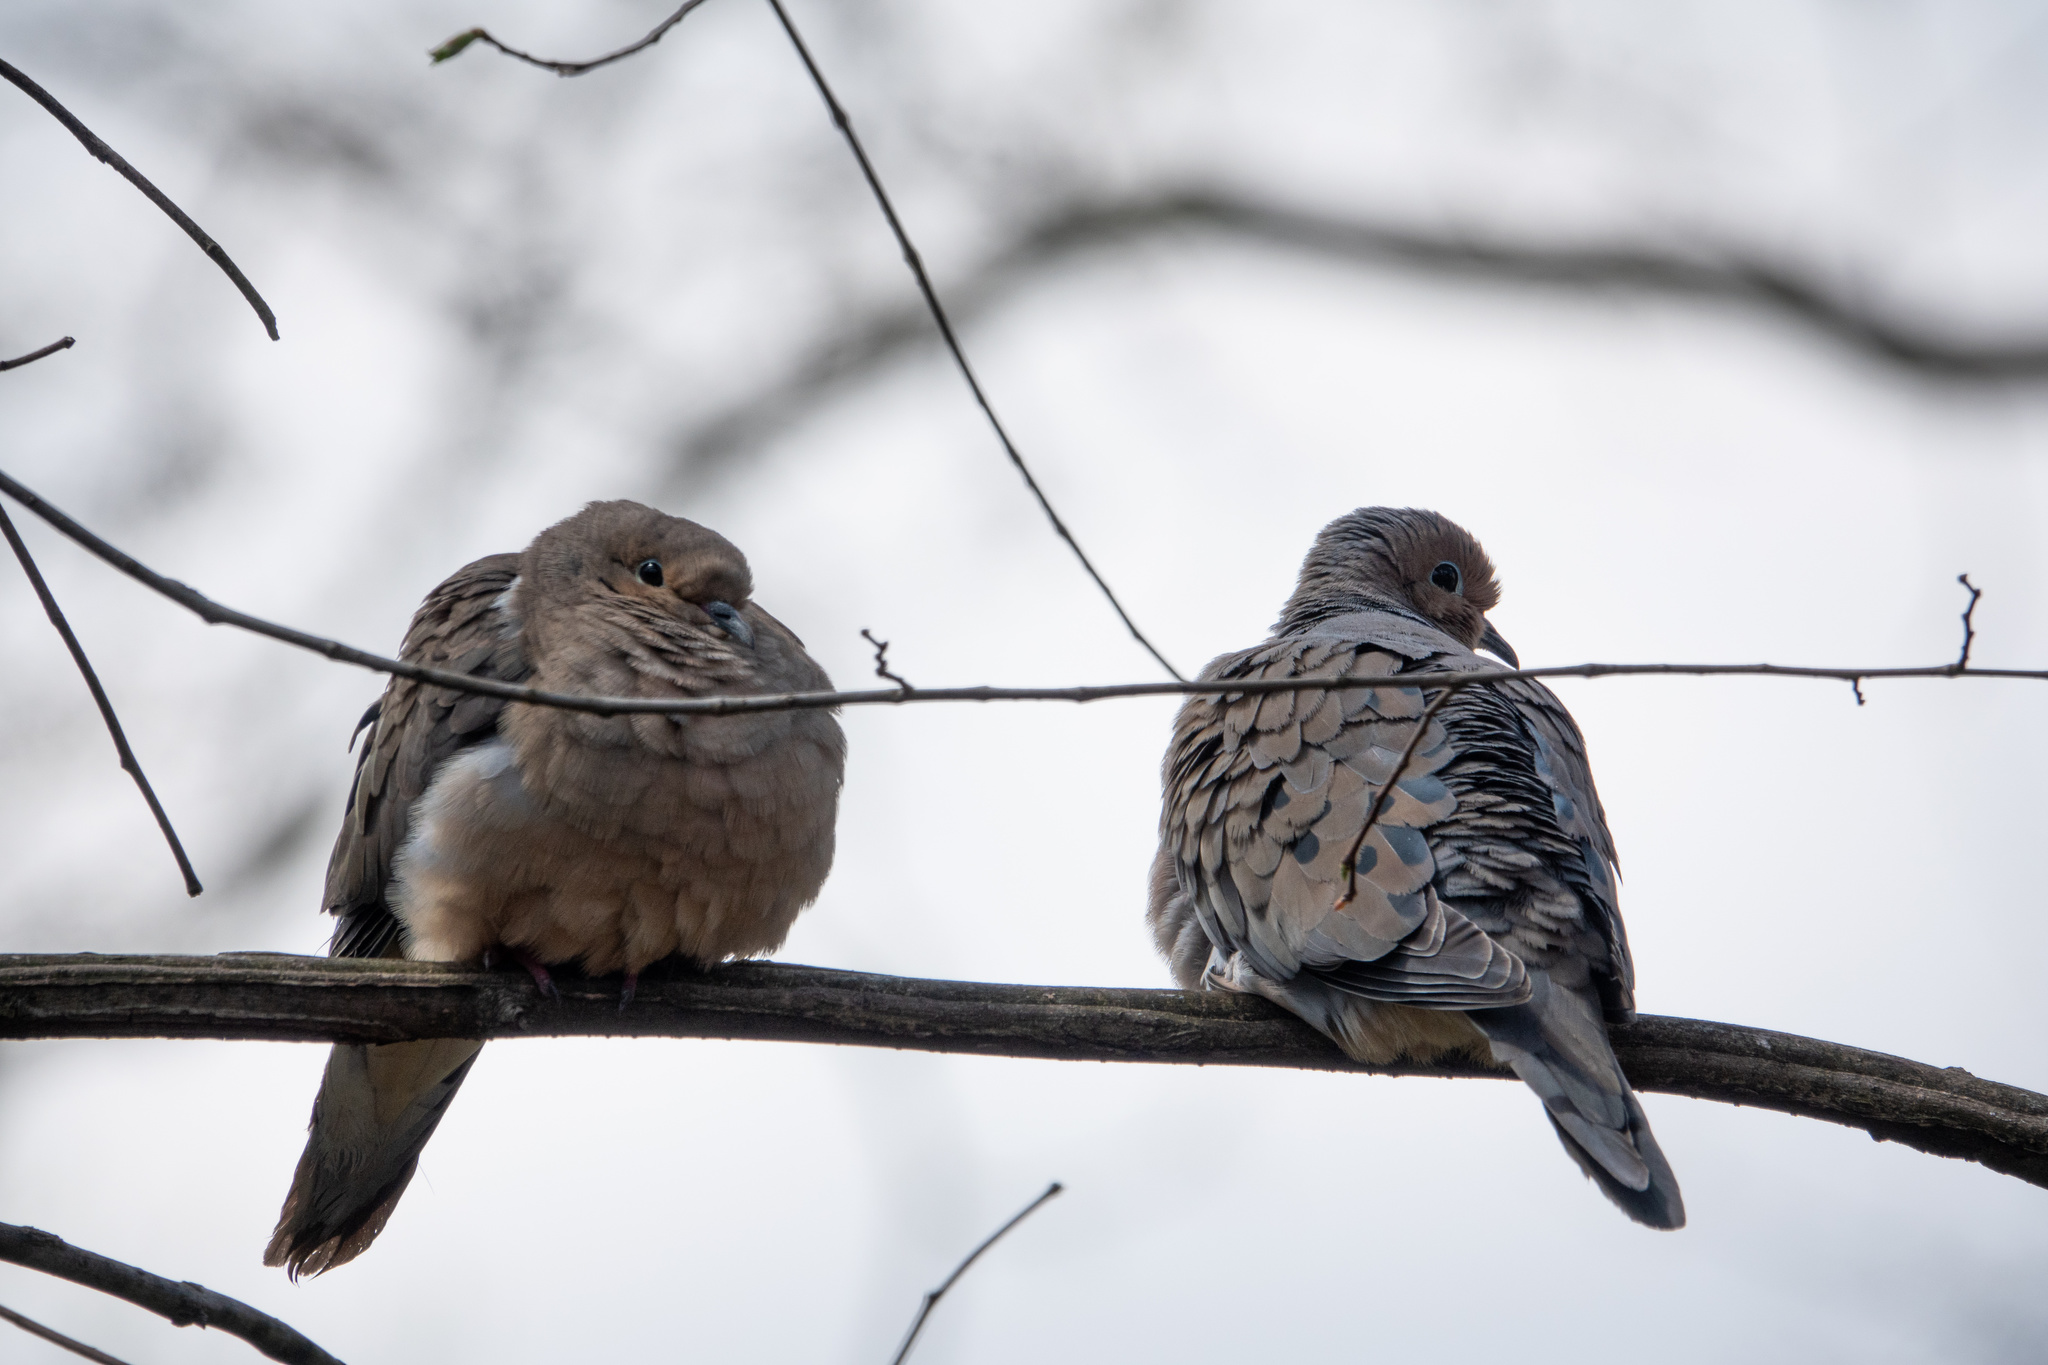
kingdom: Animalia
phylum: Chordata
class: Aves
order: Columbiformes
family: Columbidae
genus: Zenaida
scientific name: Zenaida macroura
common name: Mourning dove
